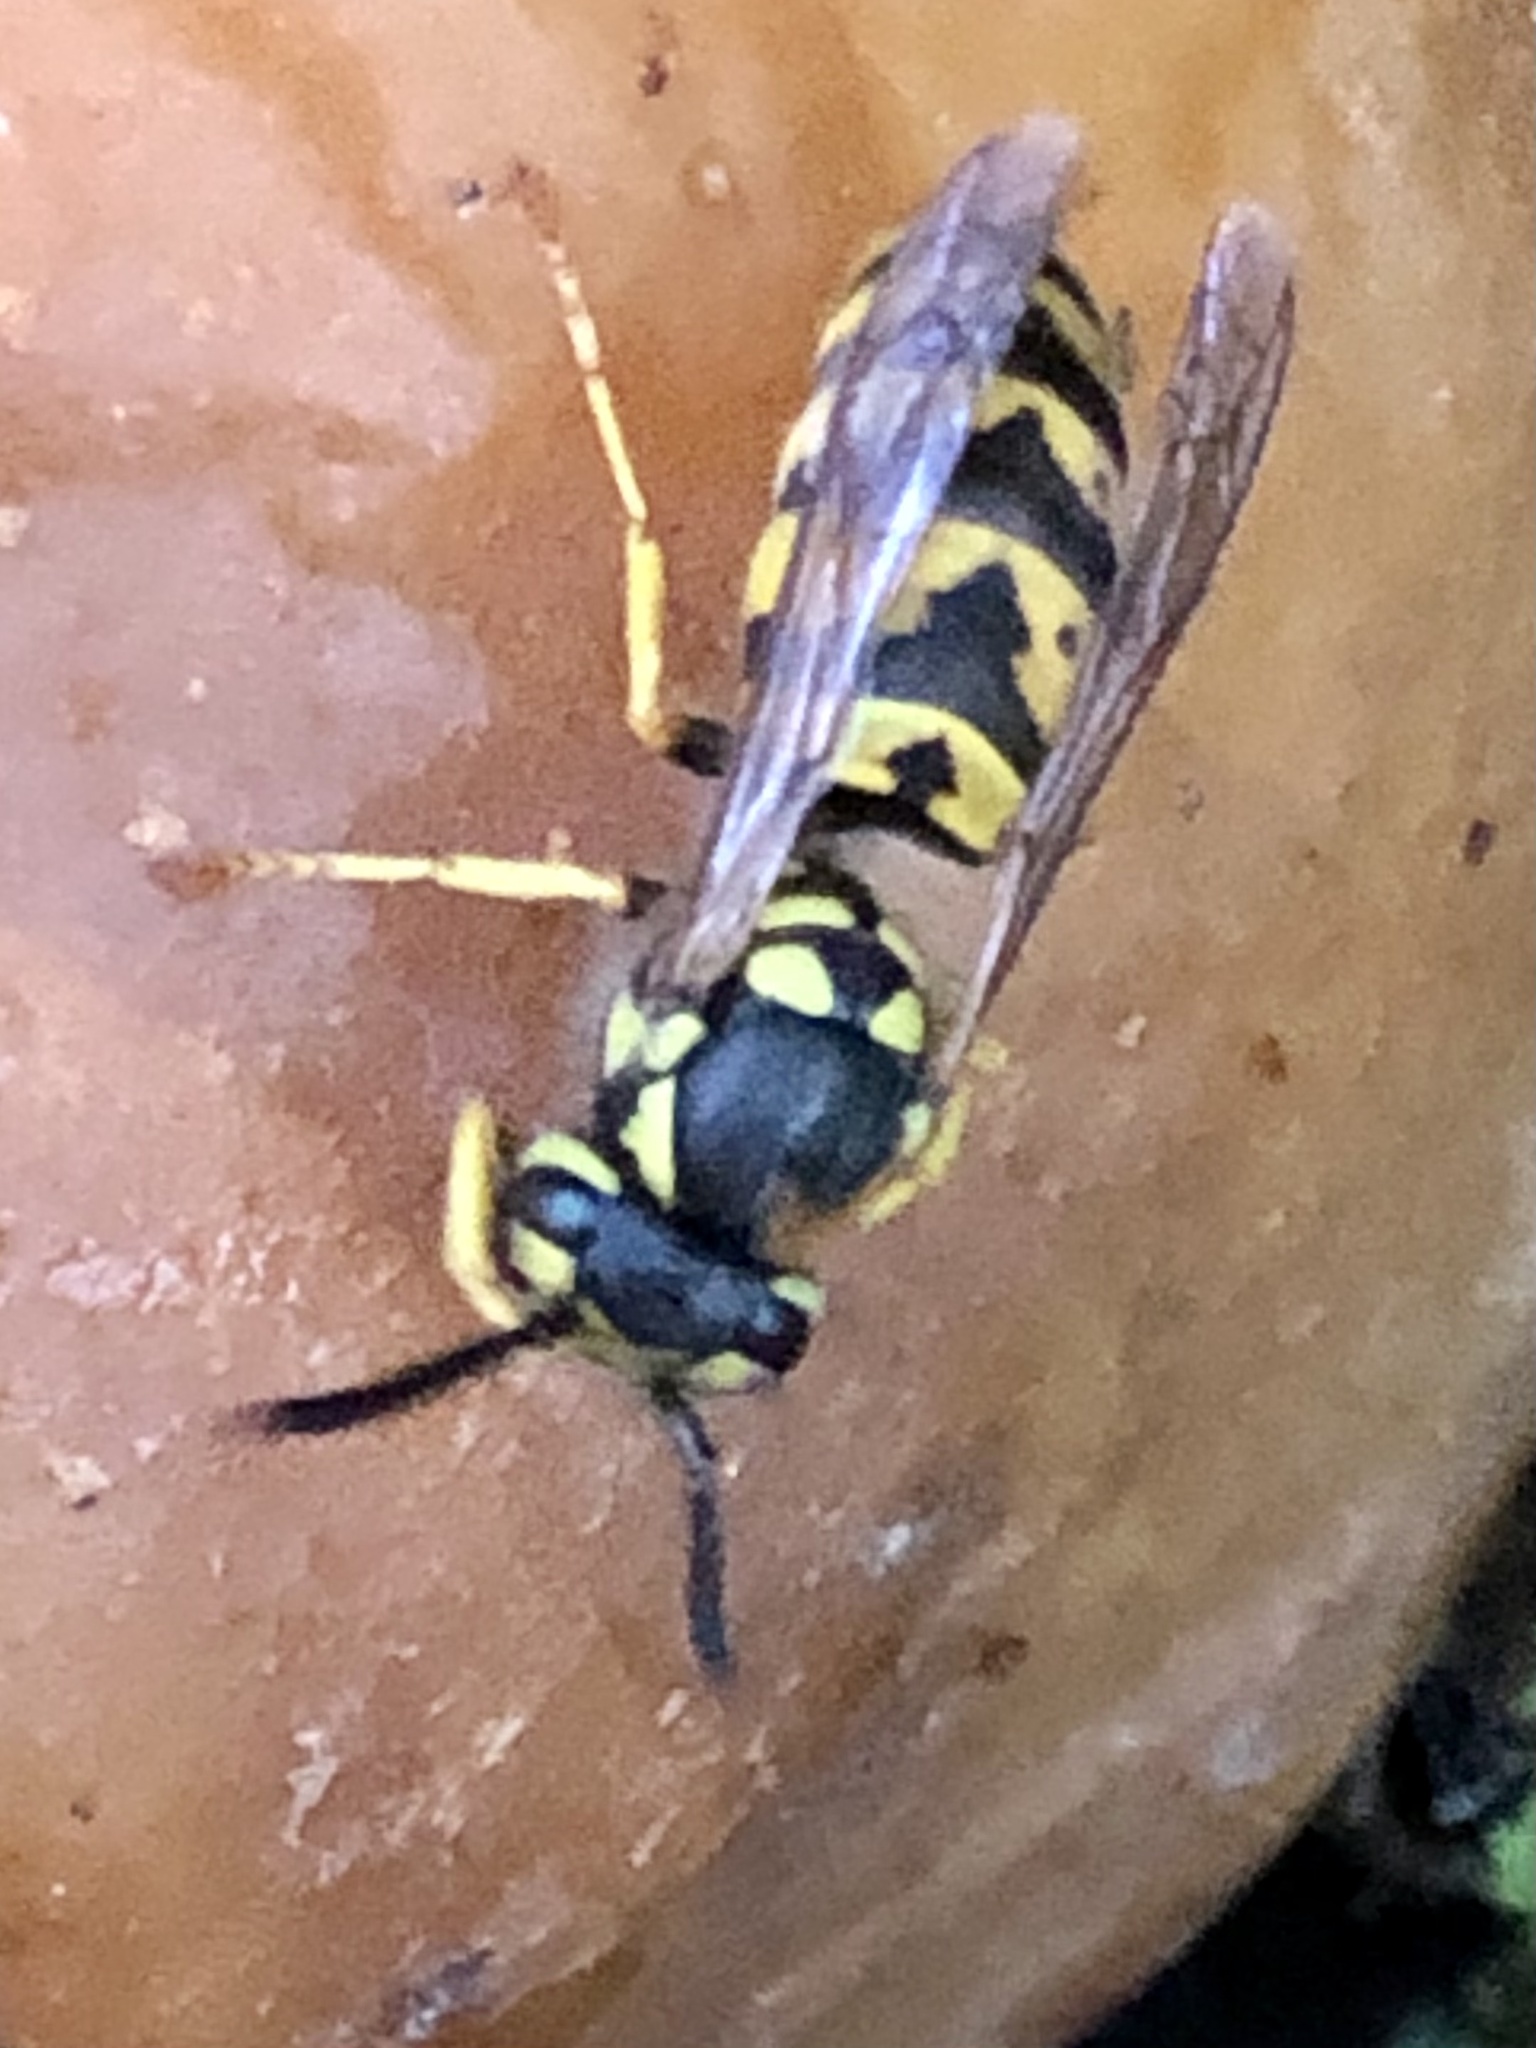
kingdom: Animalia
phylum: Arthropoda
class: Insecta
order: Hymenoptera
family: Vespidae
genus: Vespula
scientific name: Vespula germanica
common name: German wasp
